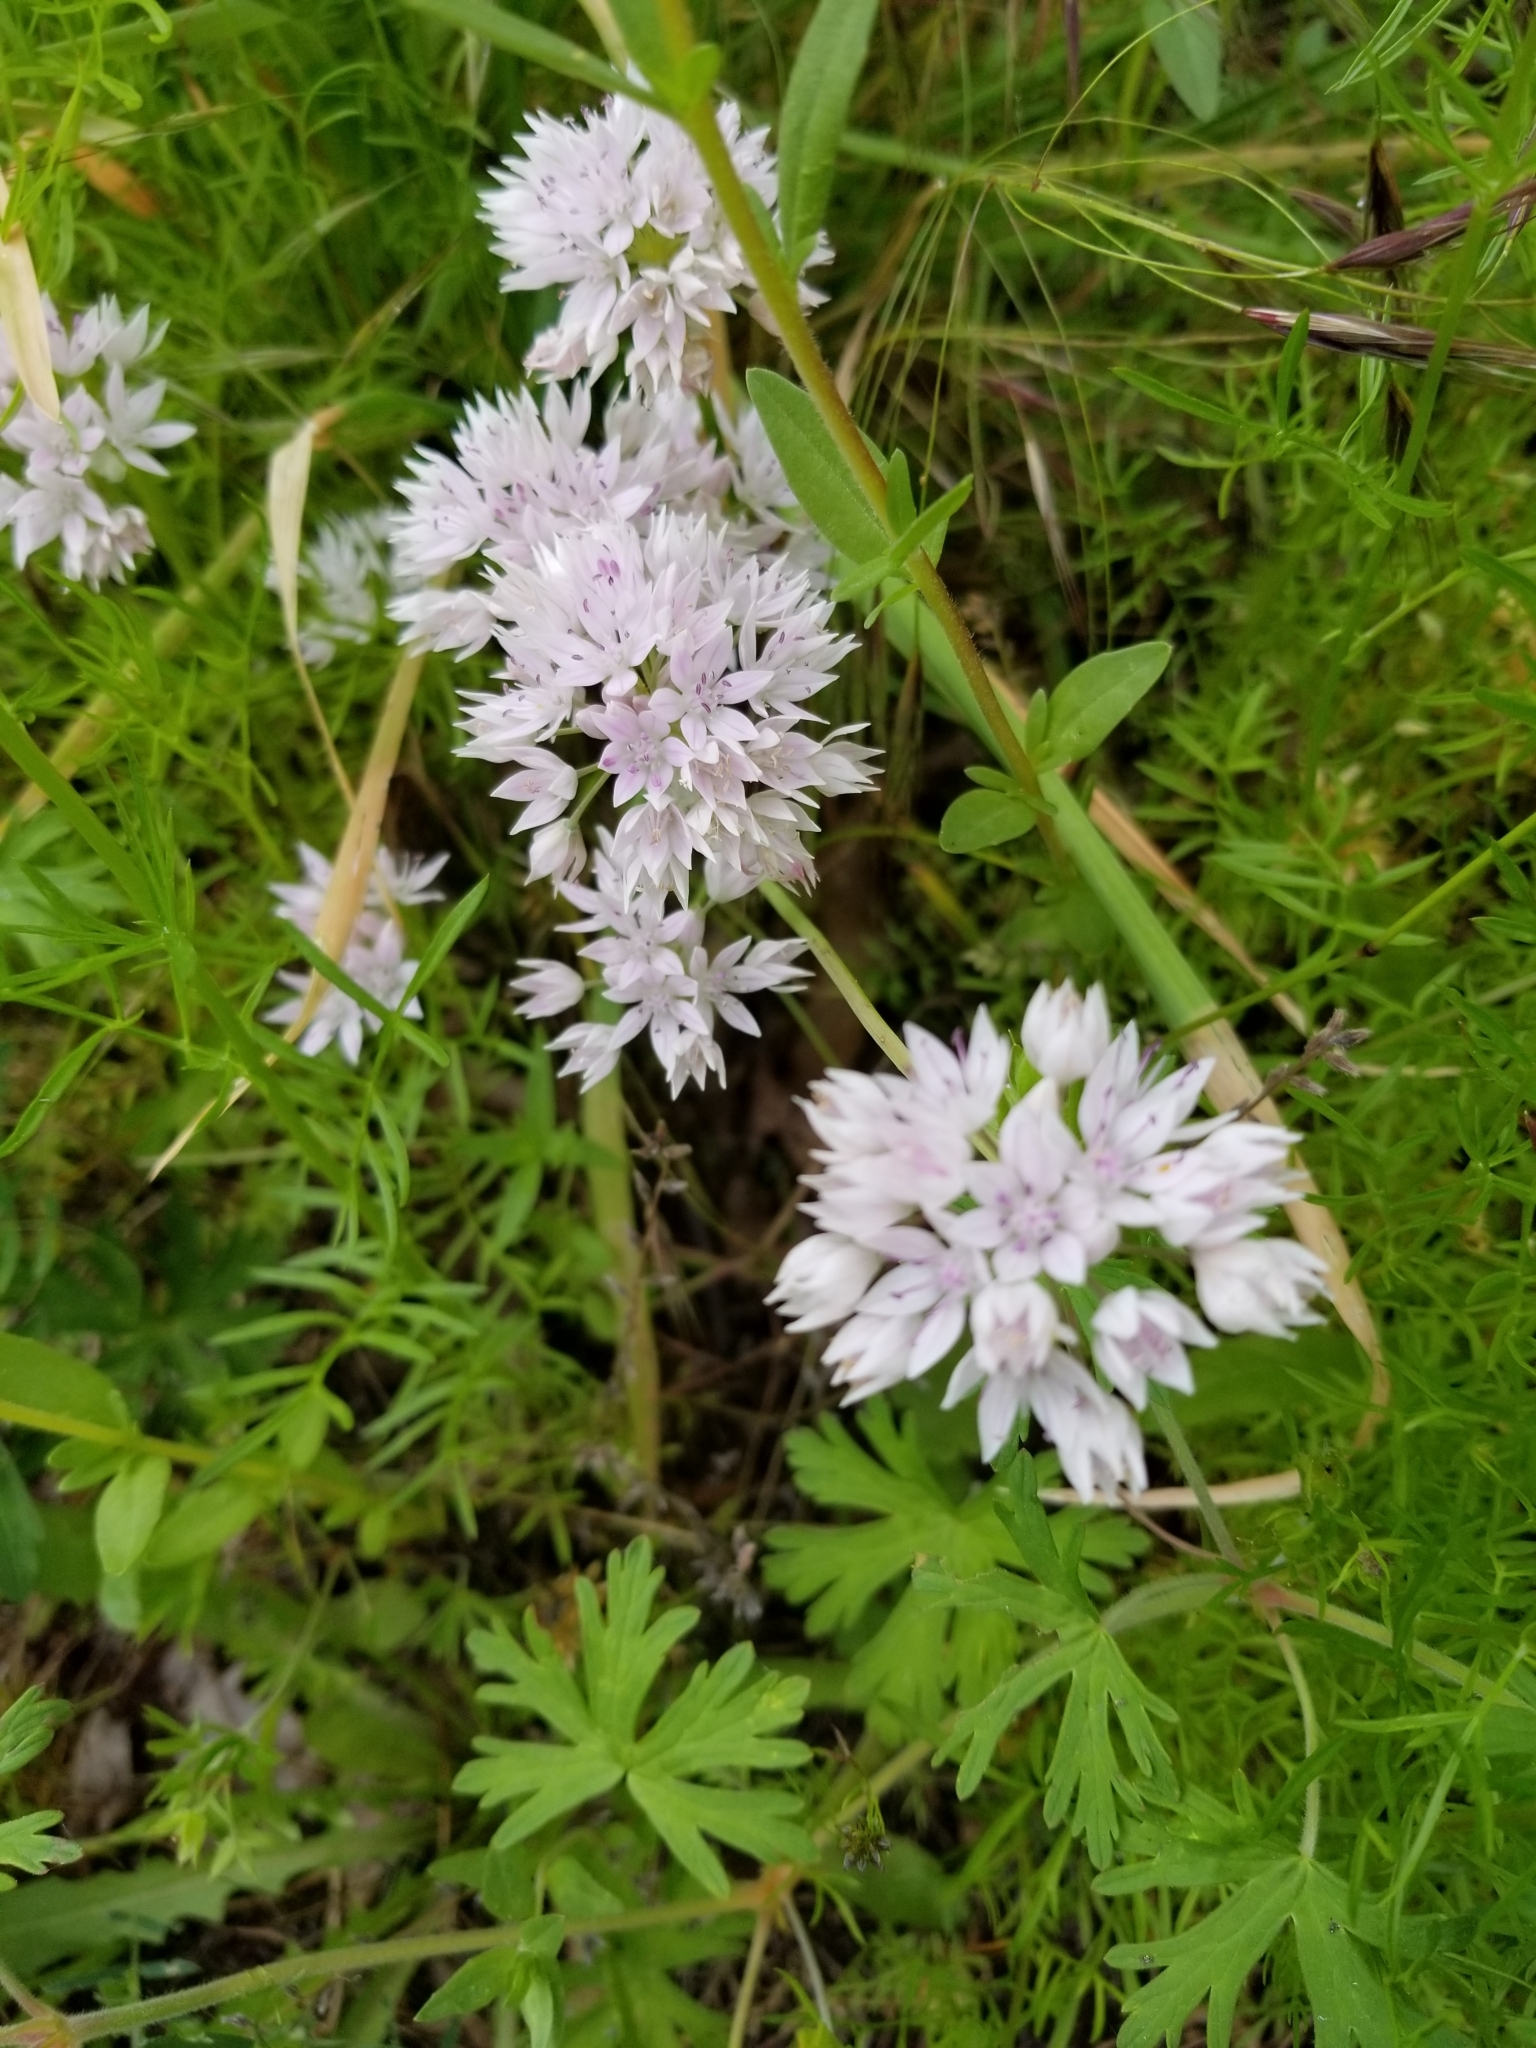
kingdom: Plantae
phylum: Tracheophyta
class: Liliopsida
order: Asparagales
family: Amaryllidaceae
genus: Allium
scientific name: Allium amplectens
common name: Narrow-leaved onion
